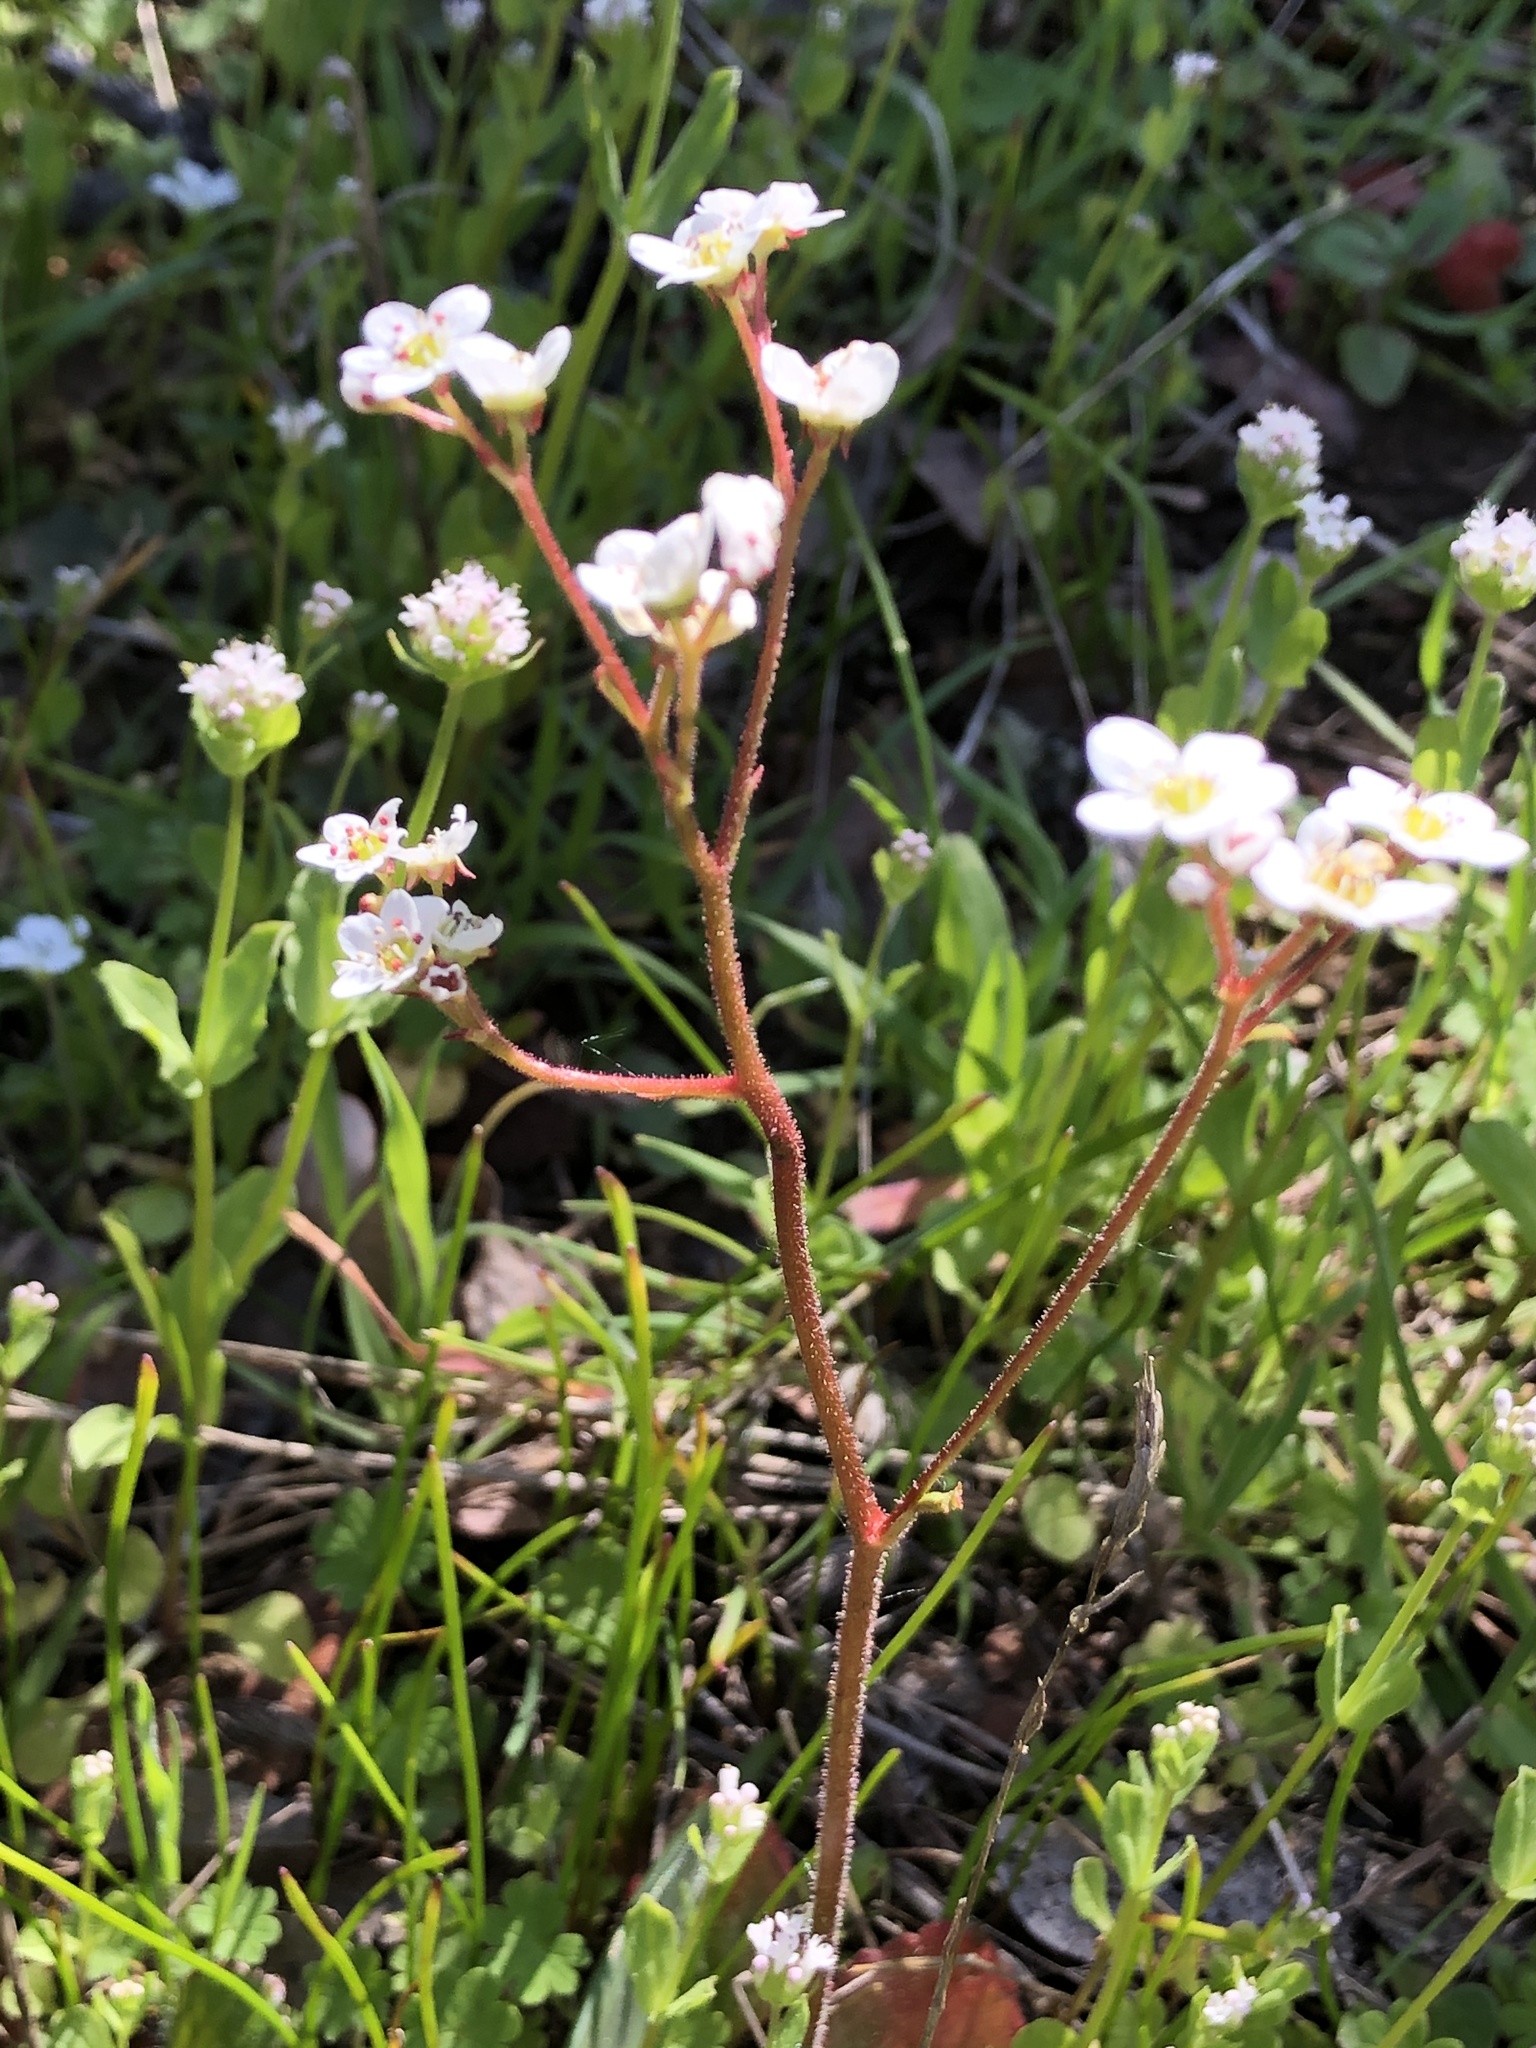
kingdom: Plantae
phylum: Tracheophyta
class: Magnoliopsida
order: Saxifragales
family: Saxifragaceae
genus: Micranthes
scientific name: Micranthes californica
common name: California saxifrage
